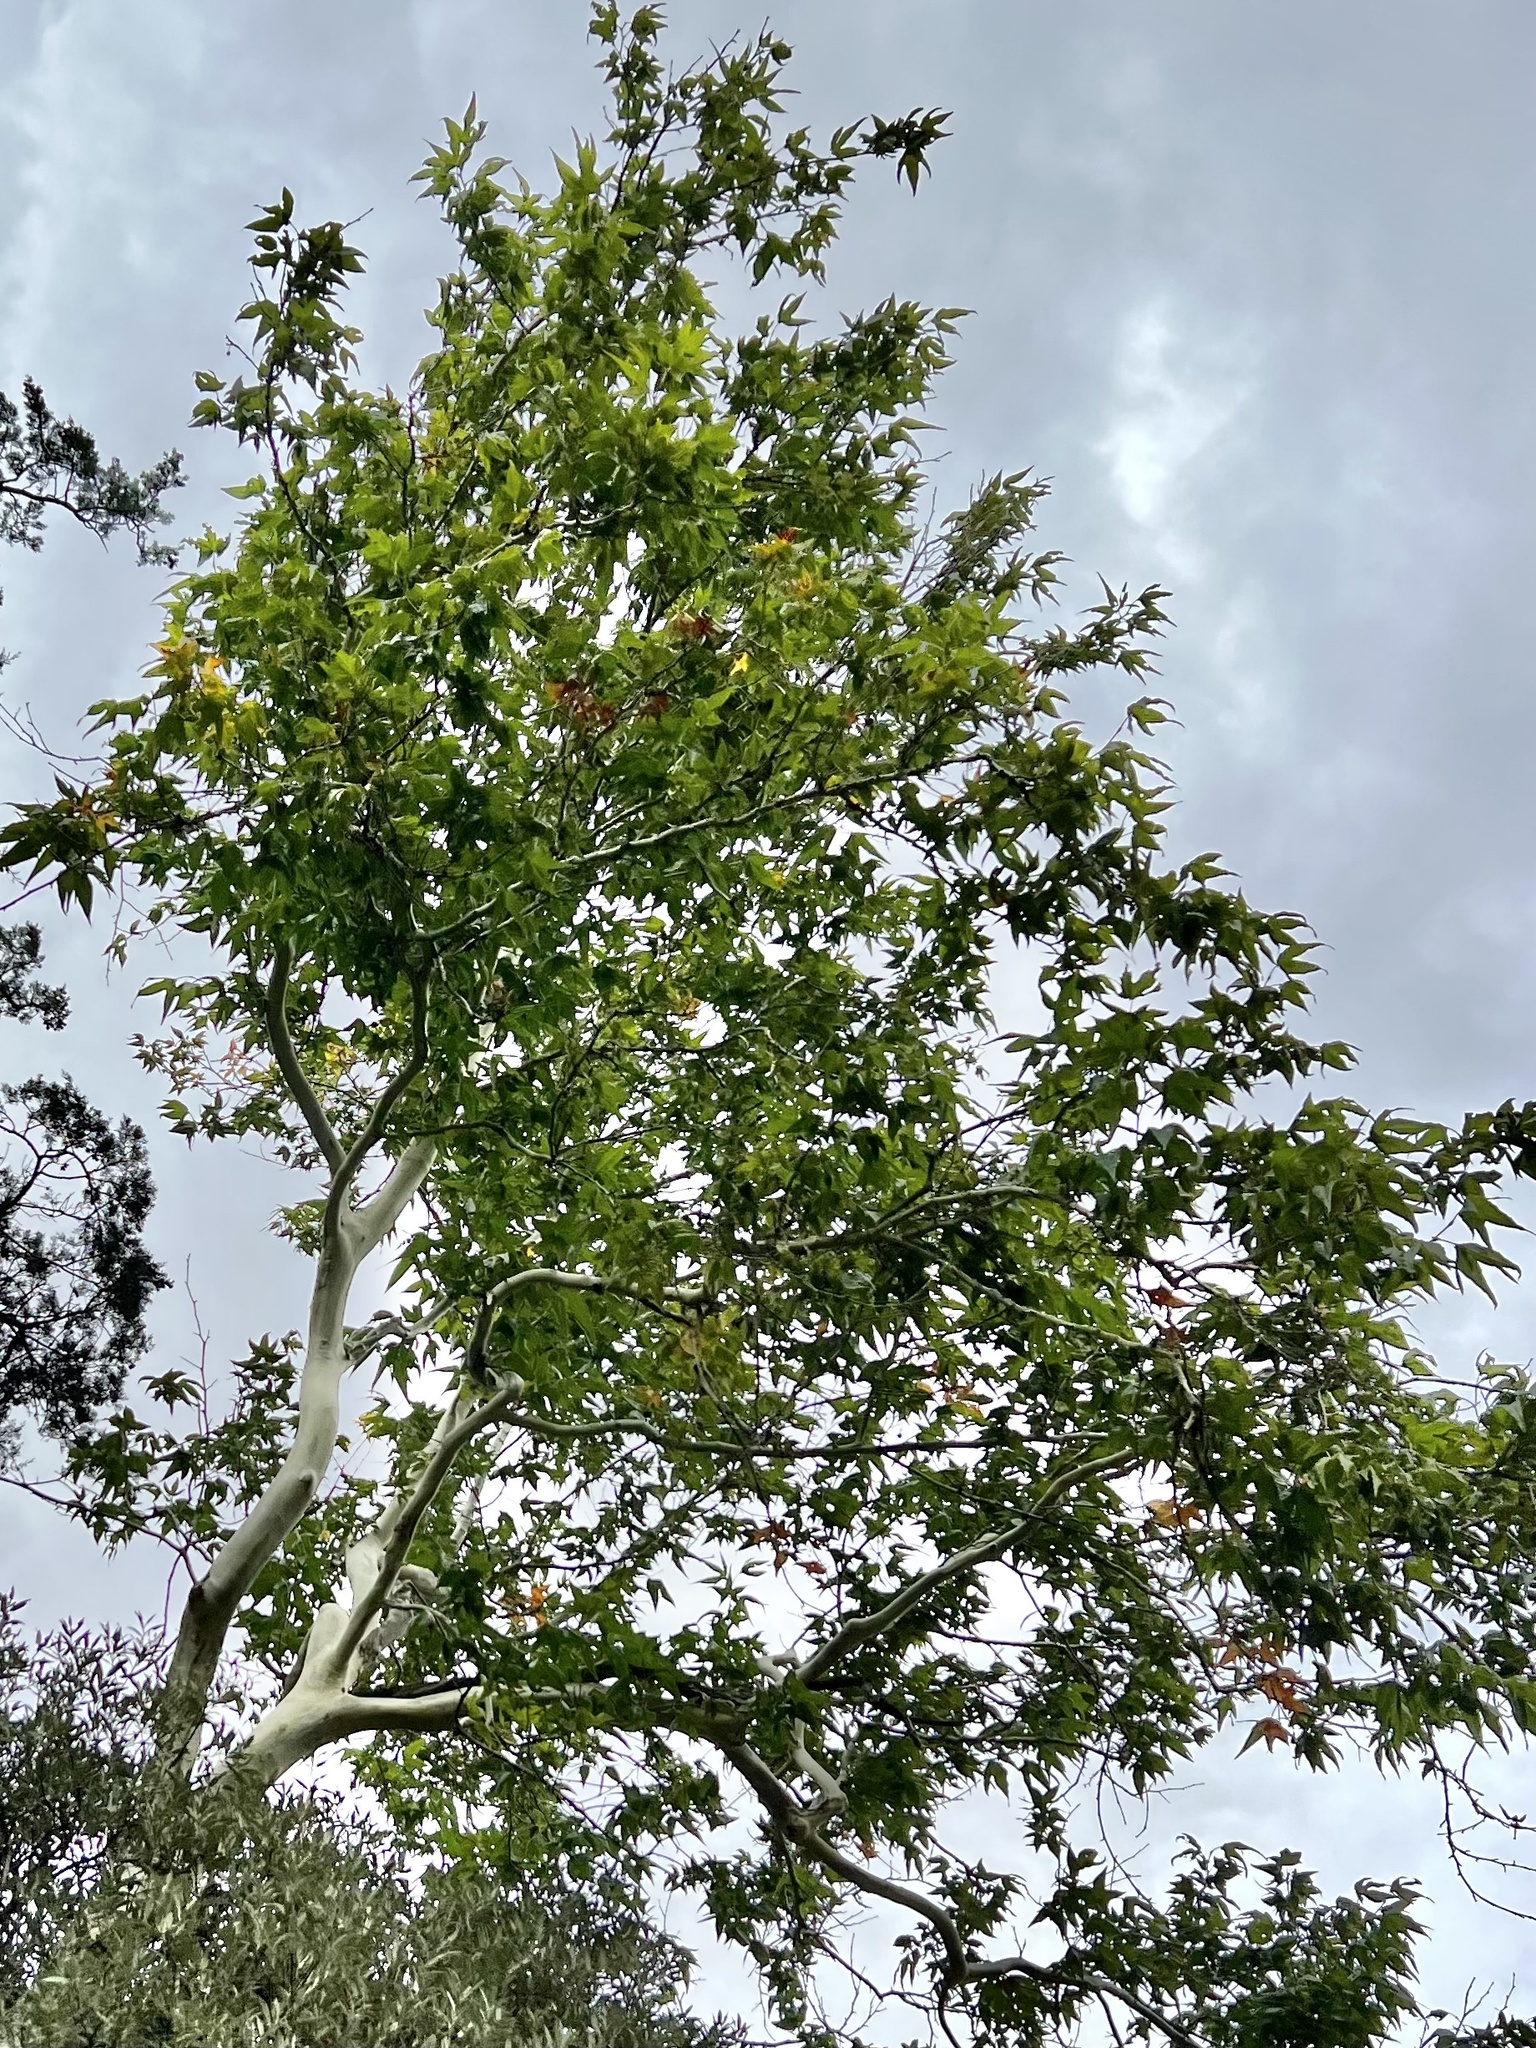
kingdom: Plantae
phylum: Tracheophyta
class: Magnoliopsida
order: Proteales
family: Platanaceae
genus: Platanus
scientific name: Platanus wrightii
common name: Arizona sycamore
